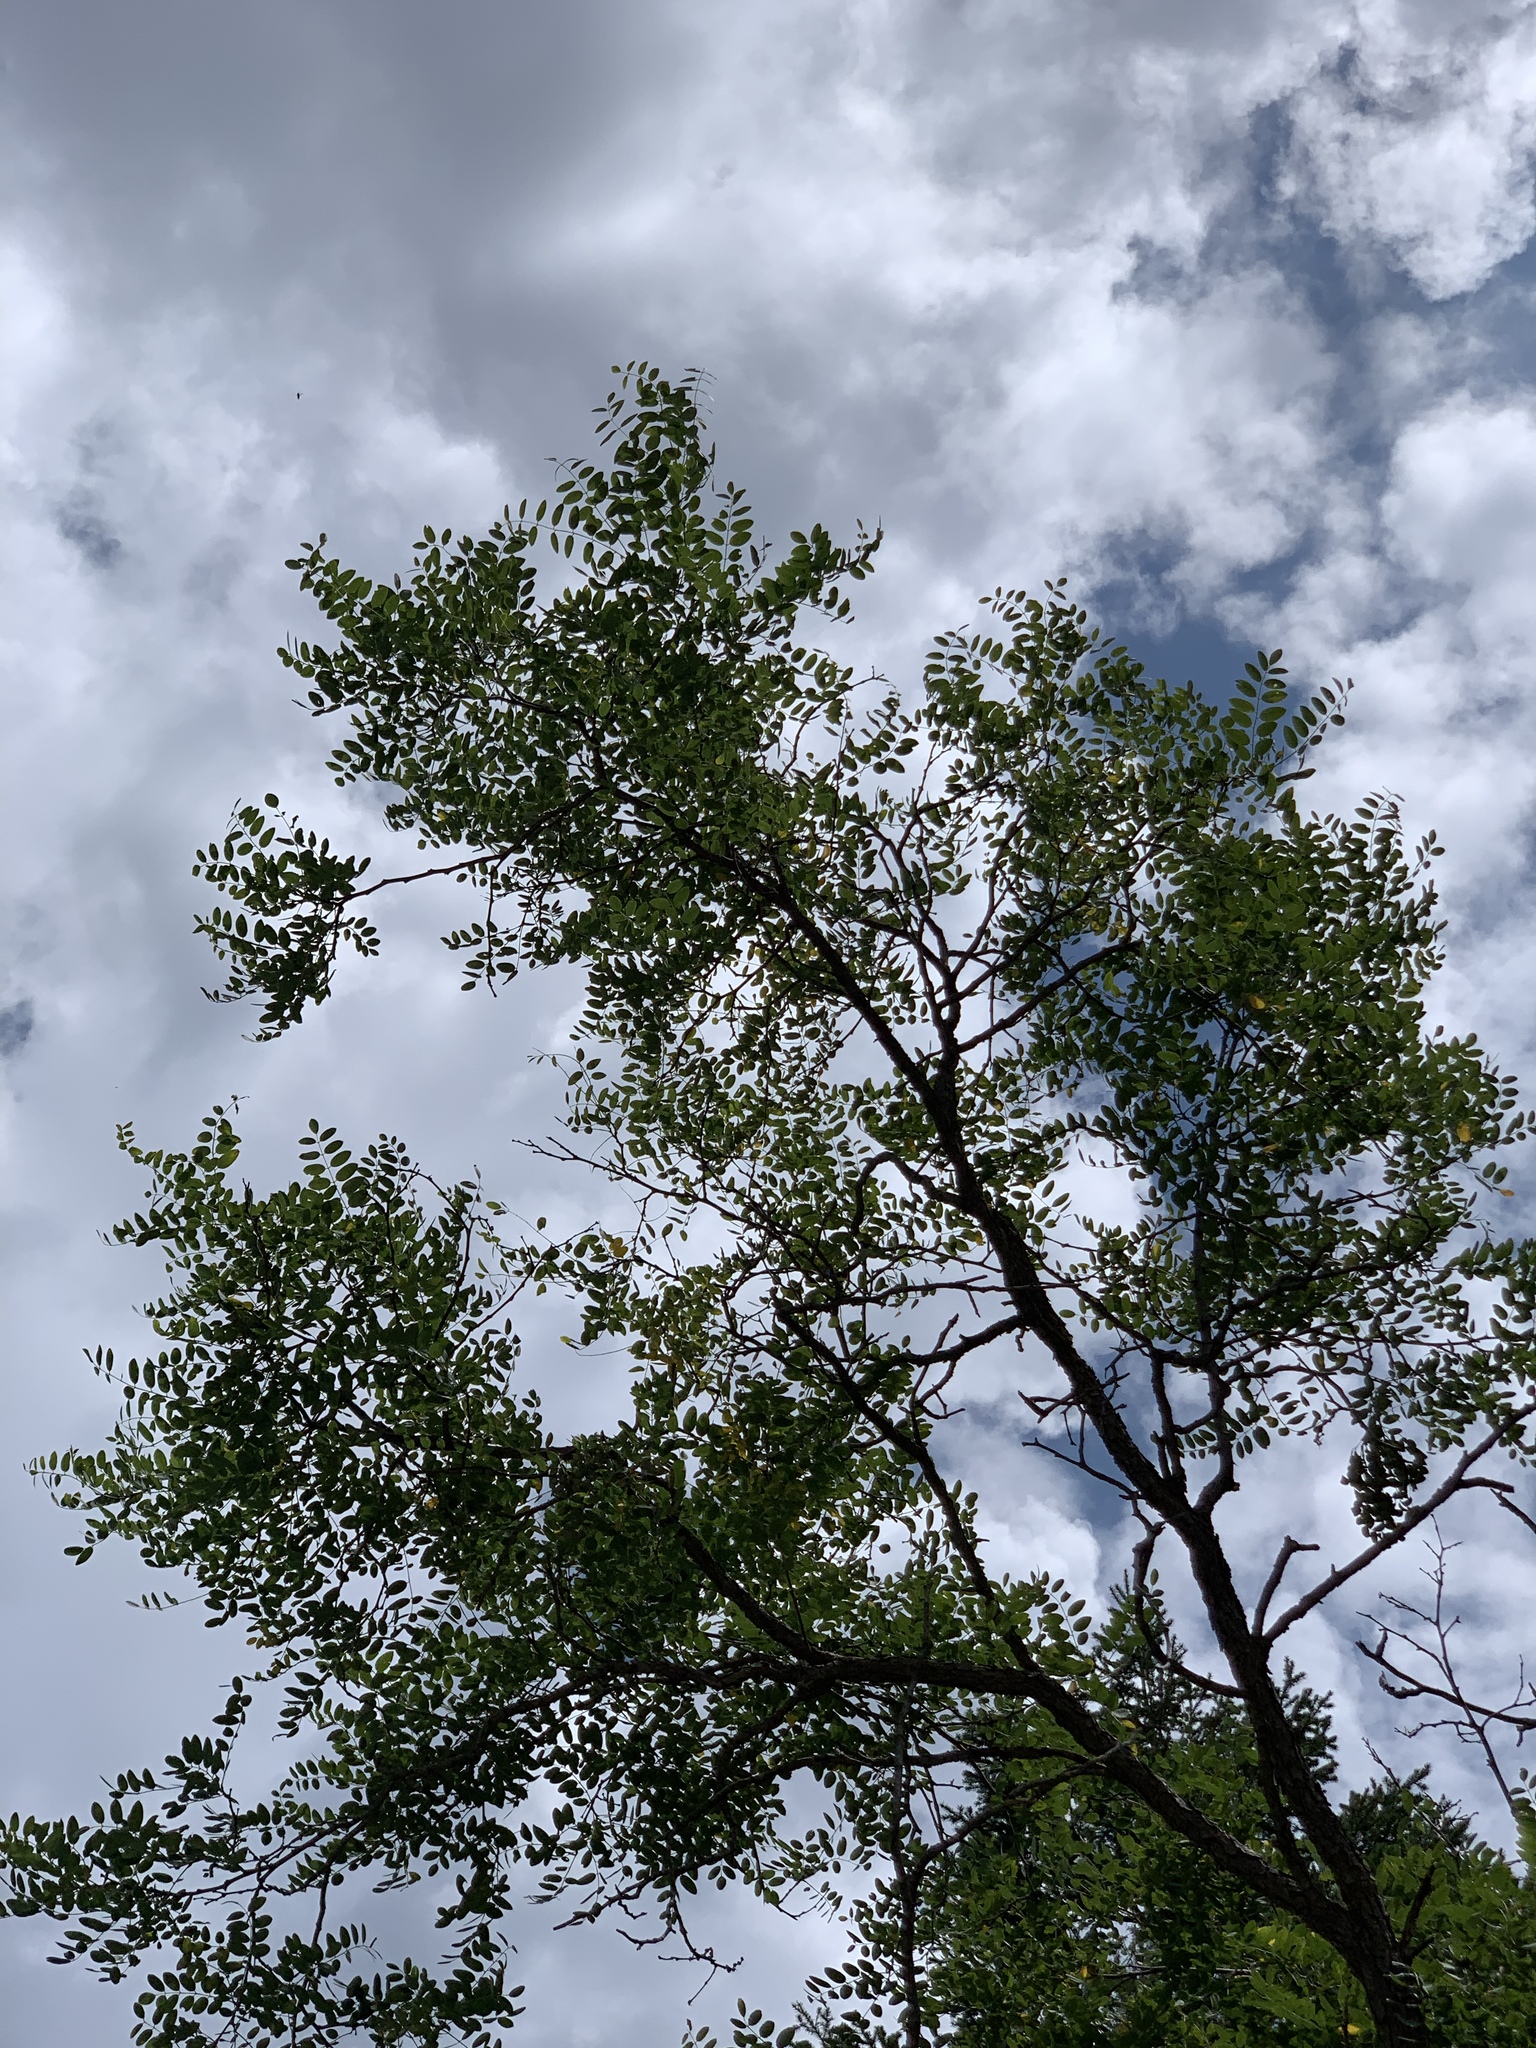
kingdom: Plantae
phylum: Tracheophyta
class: Magnoliopsida
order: Fabales
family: Fabaceae
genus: Robinia
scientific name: Robinia neomexicana
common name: New mexico locust
